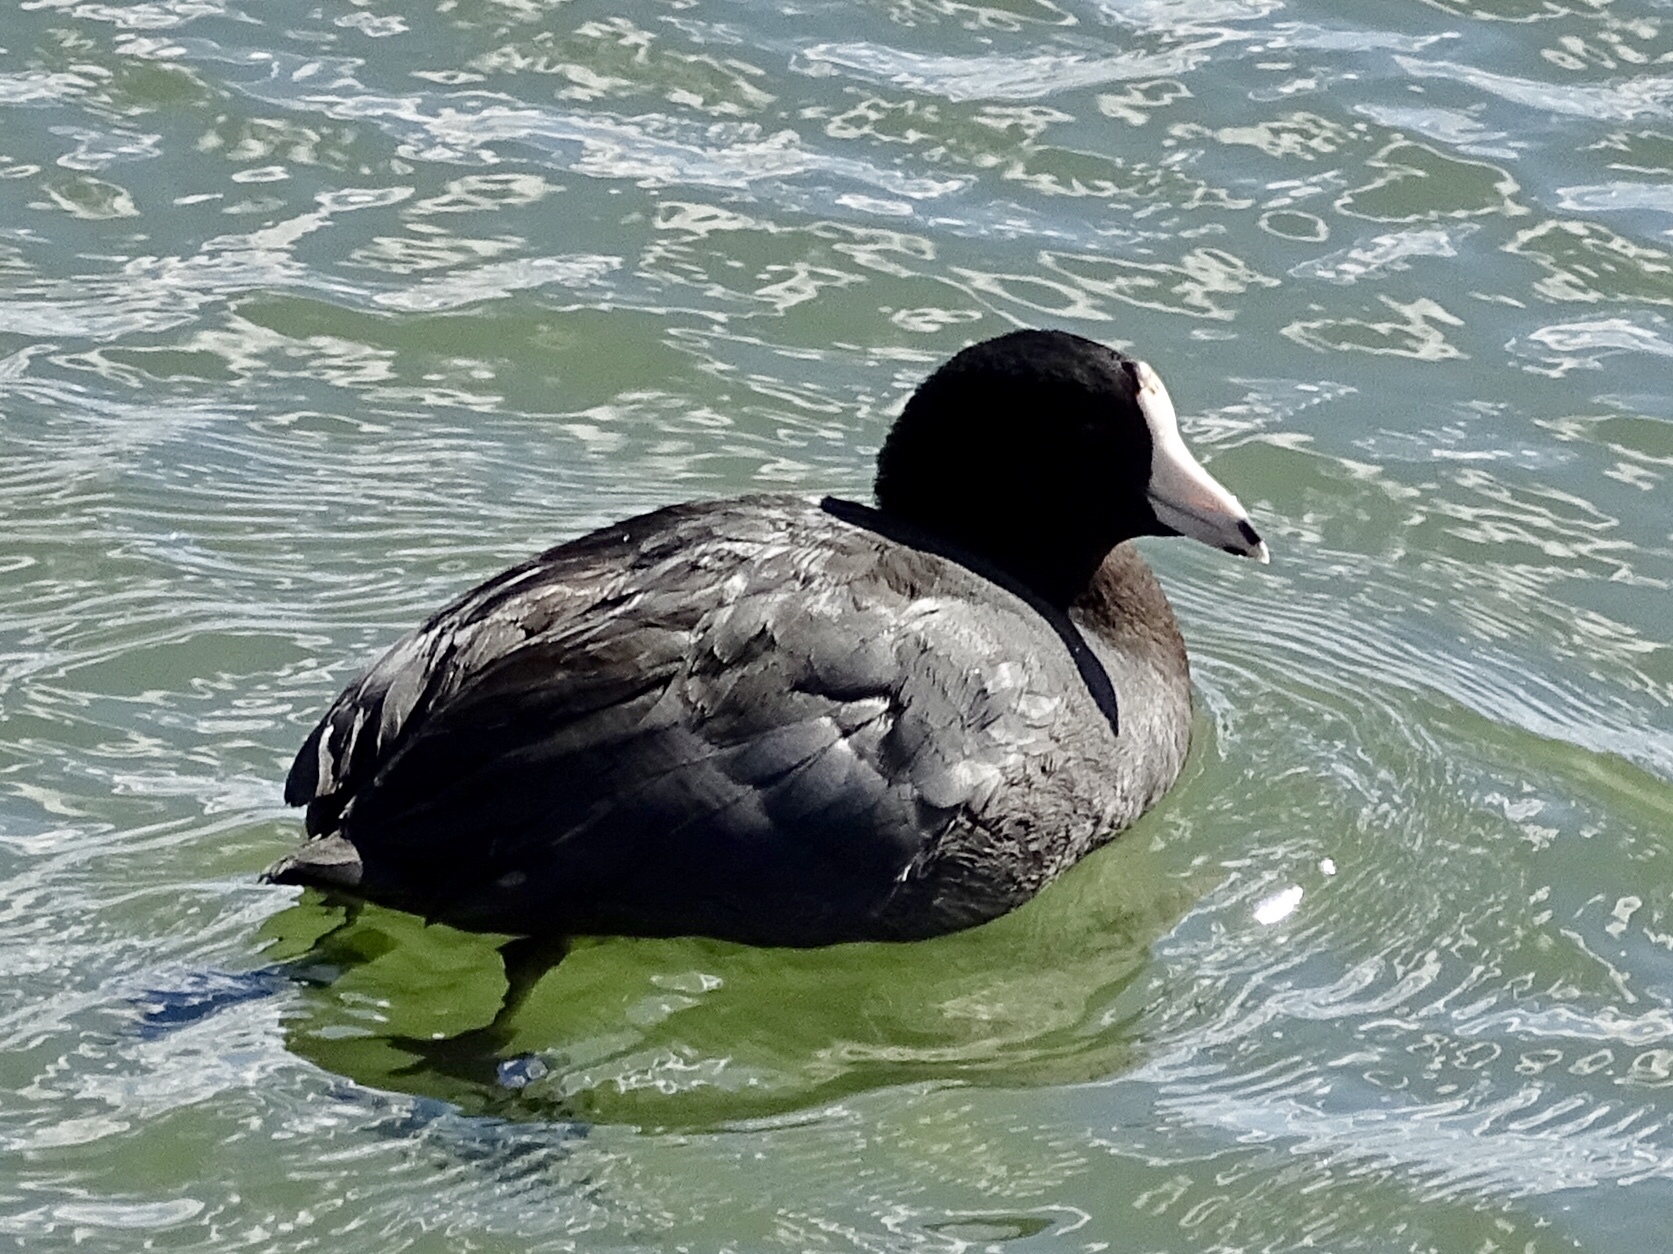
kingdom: Animalia
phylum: Chordata
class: Aves
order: Gruiformes
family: Rallidae
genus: Fulica
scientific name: Fulica americana
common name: American coot
